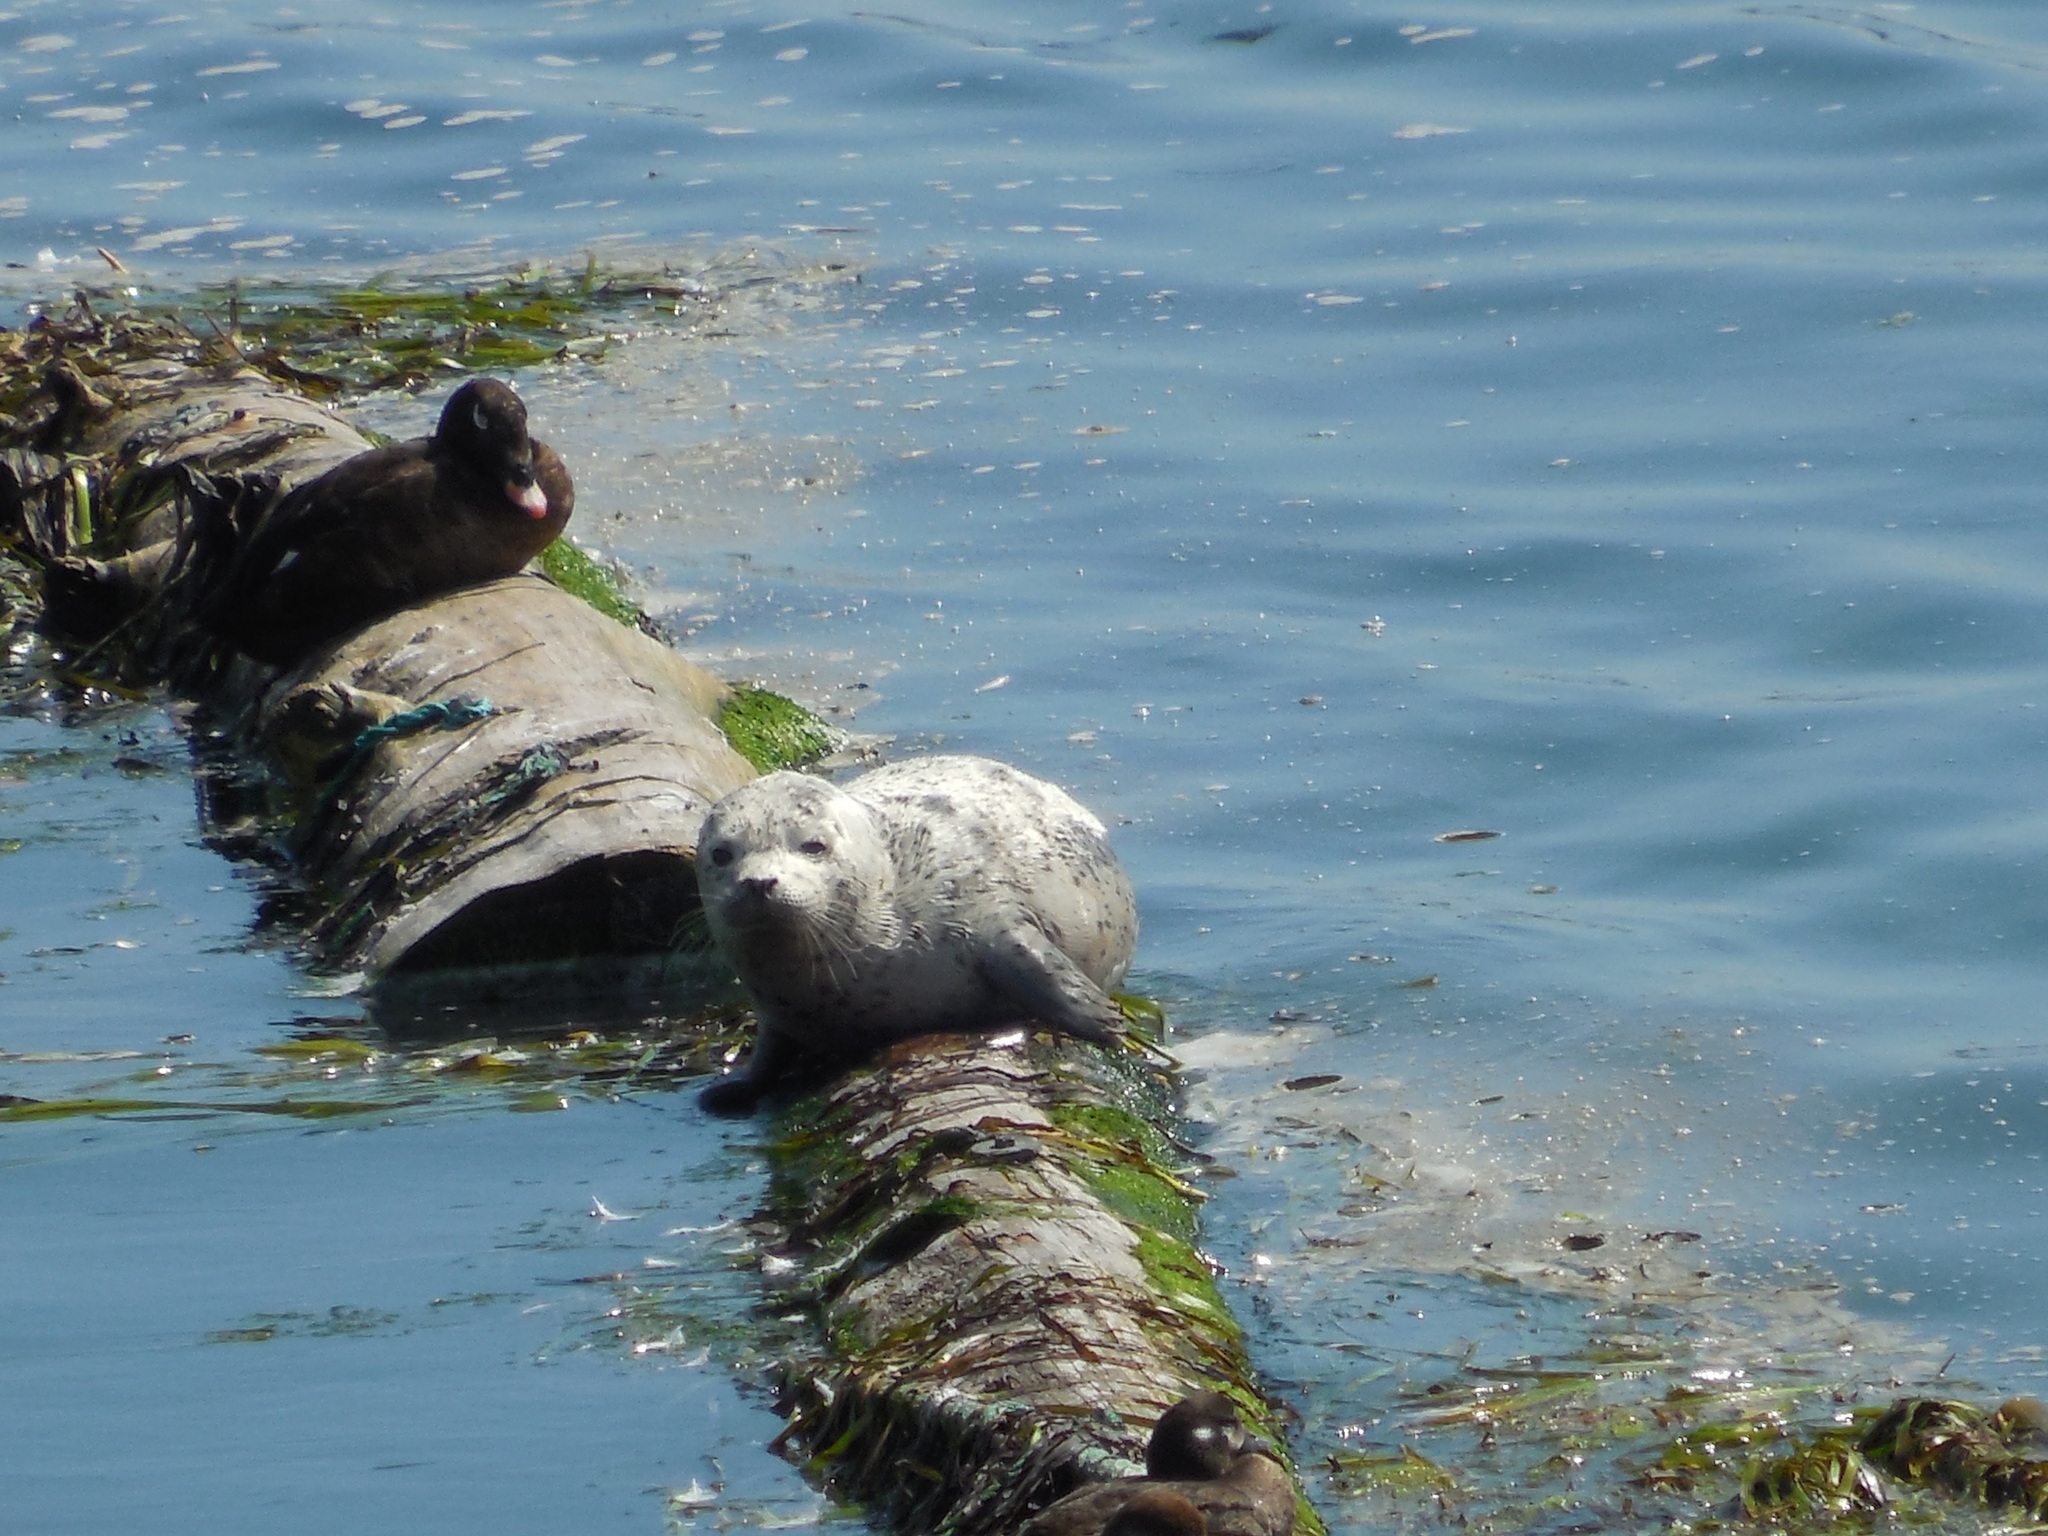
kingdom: Animalia
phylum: Chordata
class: Mammalia
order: Carnivora
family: Phocidae
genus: Phoca
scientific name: Phoca vitulina
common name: Harbor seal
